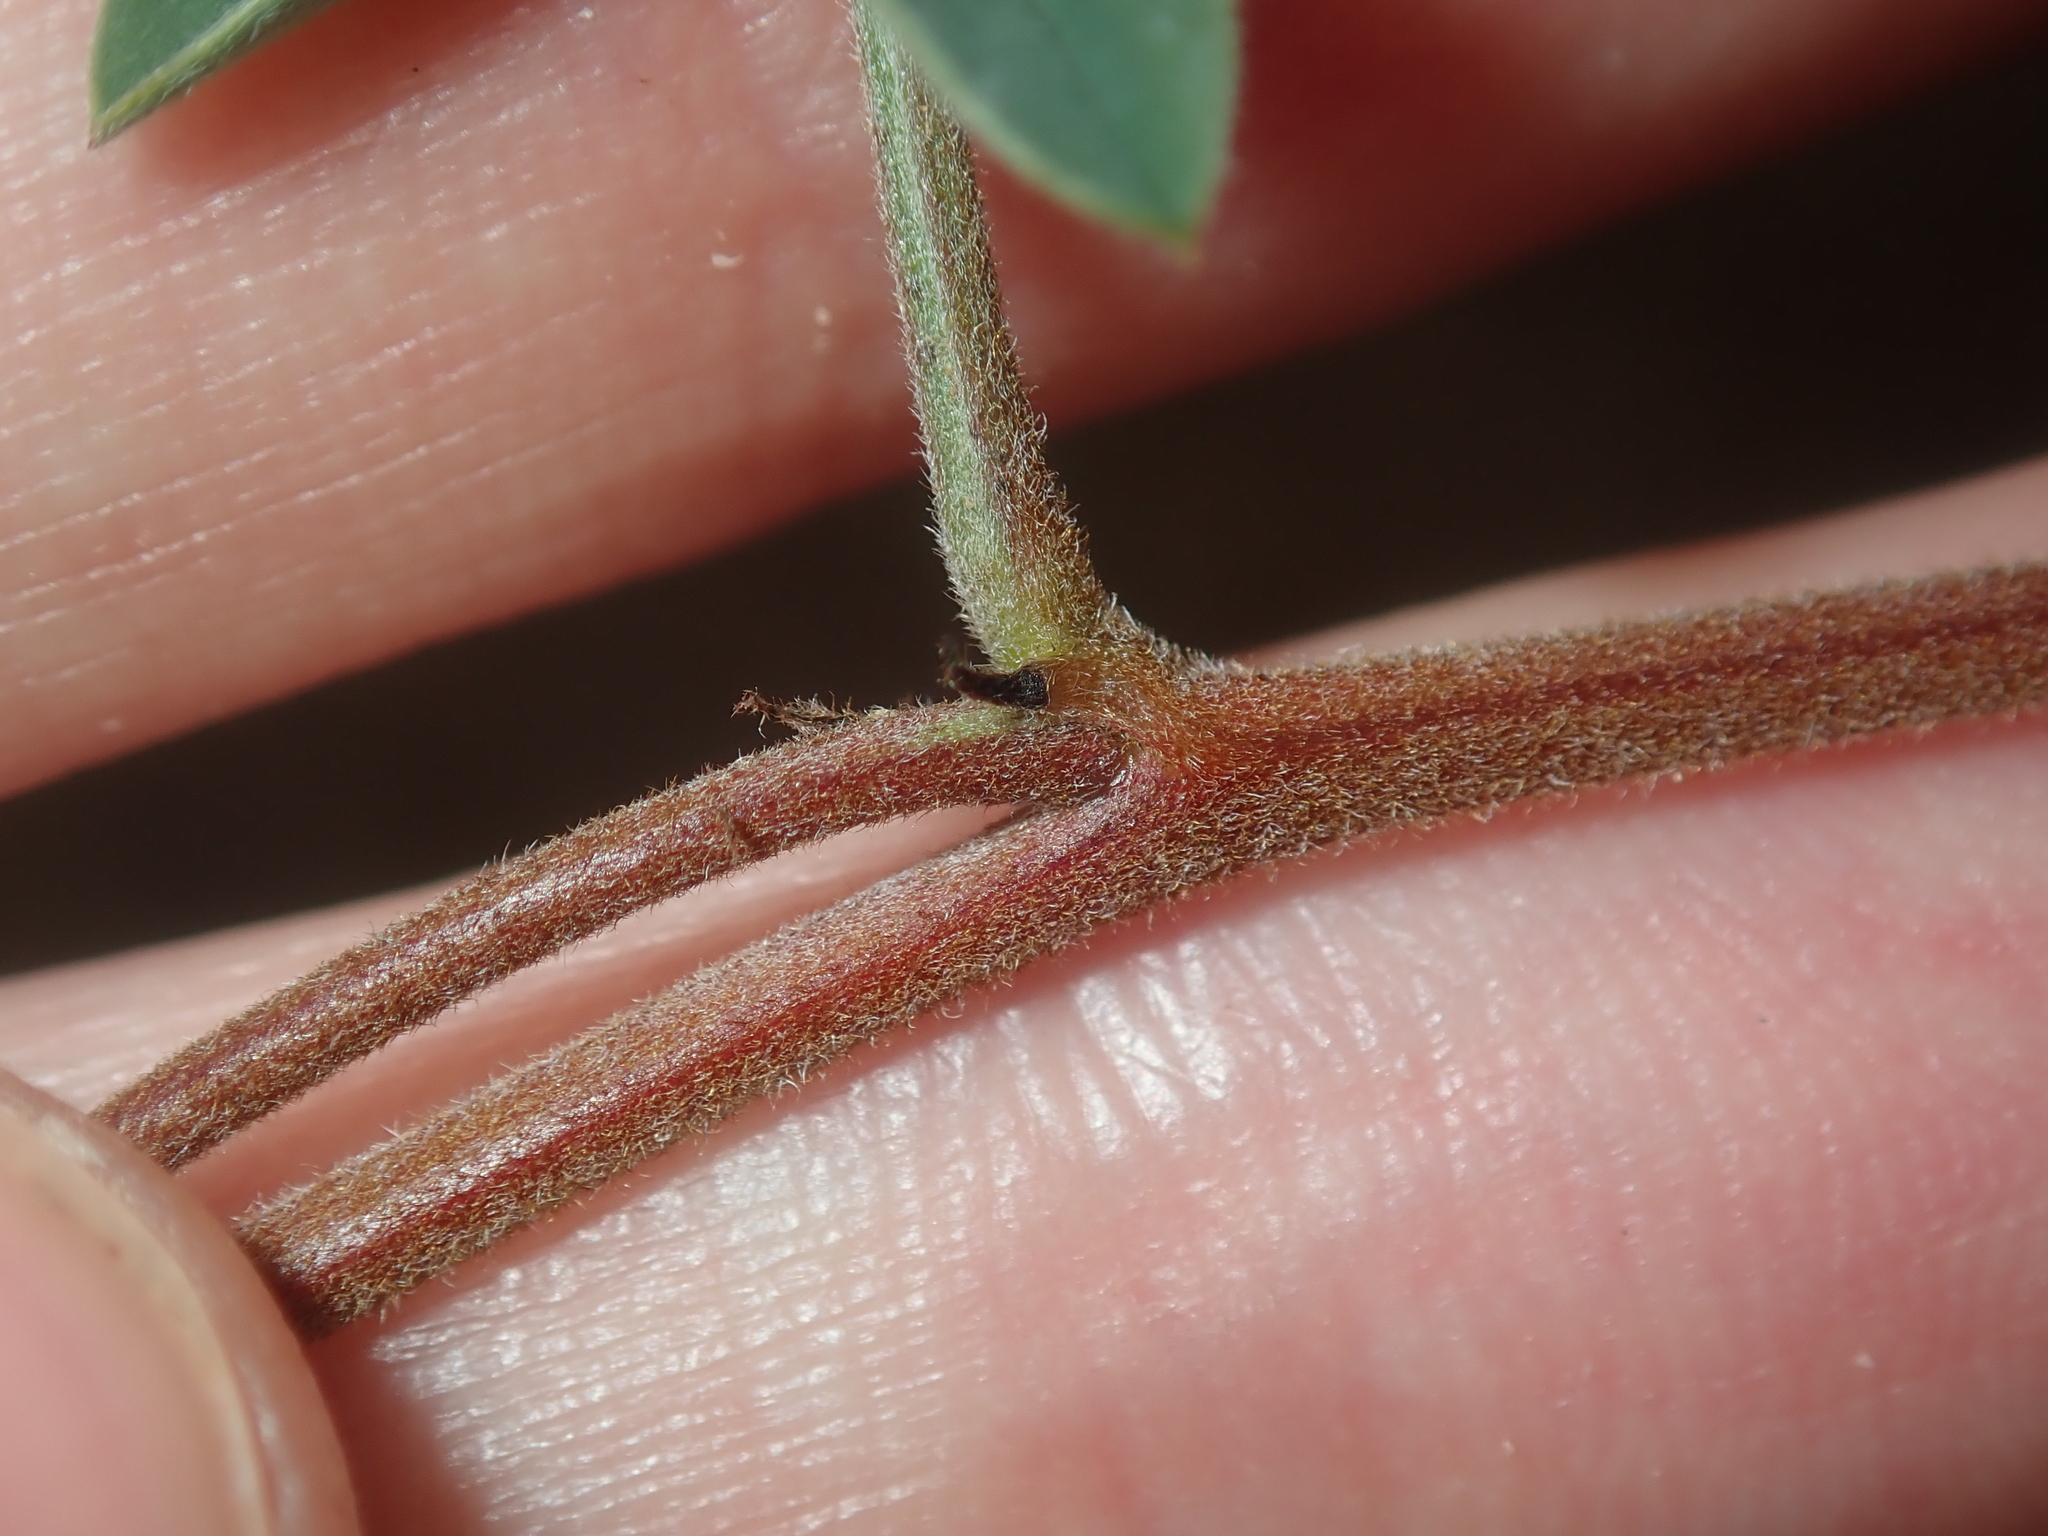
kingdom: Plantae
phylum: Tracheophyta
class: Magnoliopsida
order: Fabales
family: Fabaceae
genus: Indigofera
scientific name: Indigofera occidentalis
